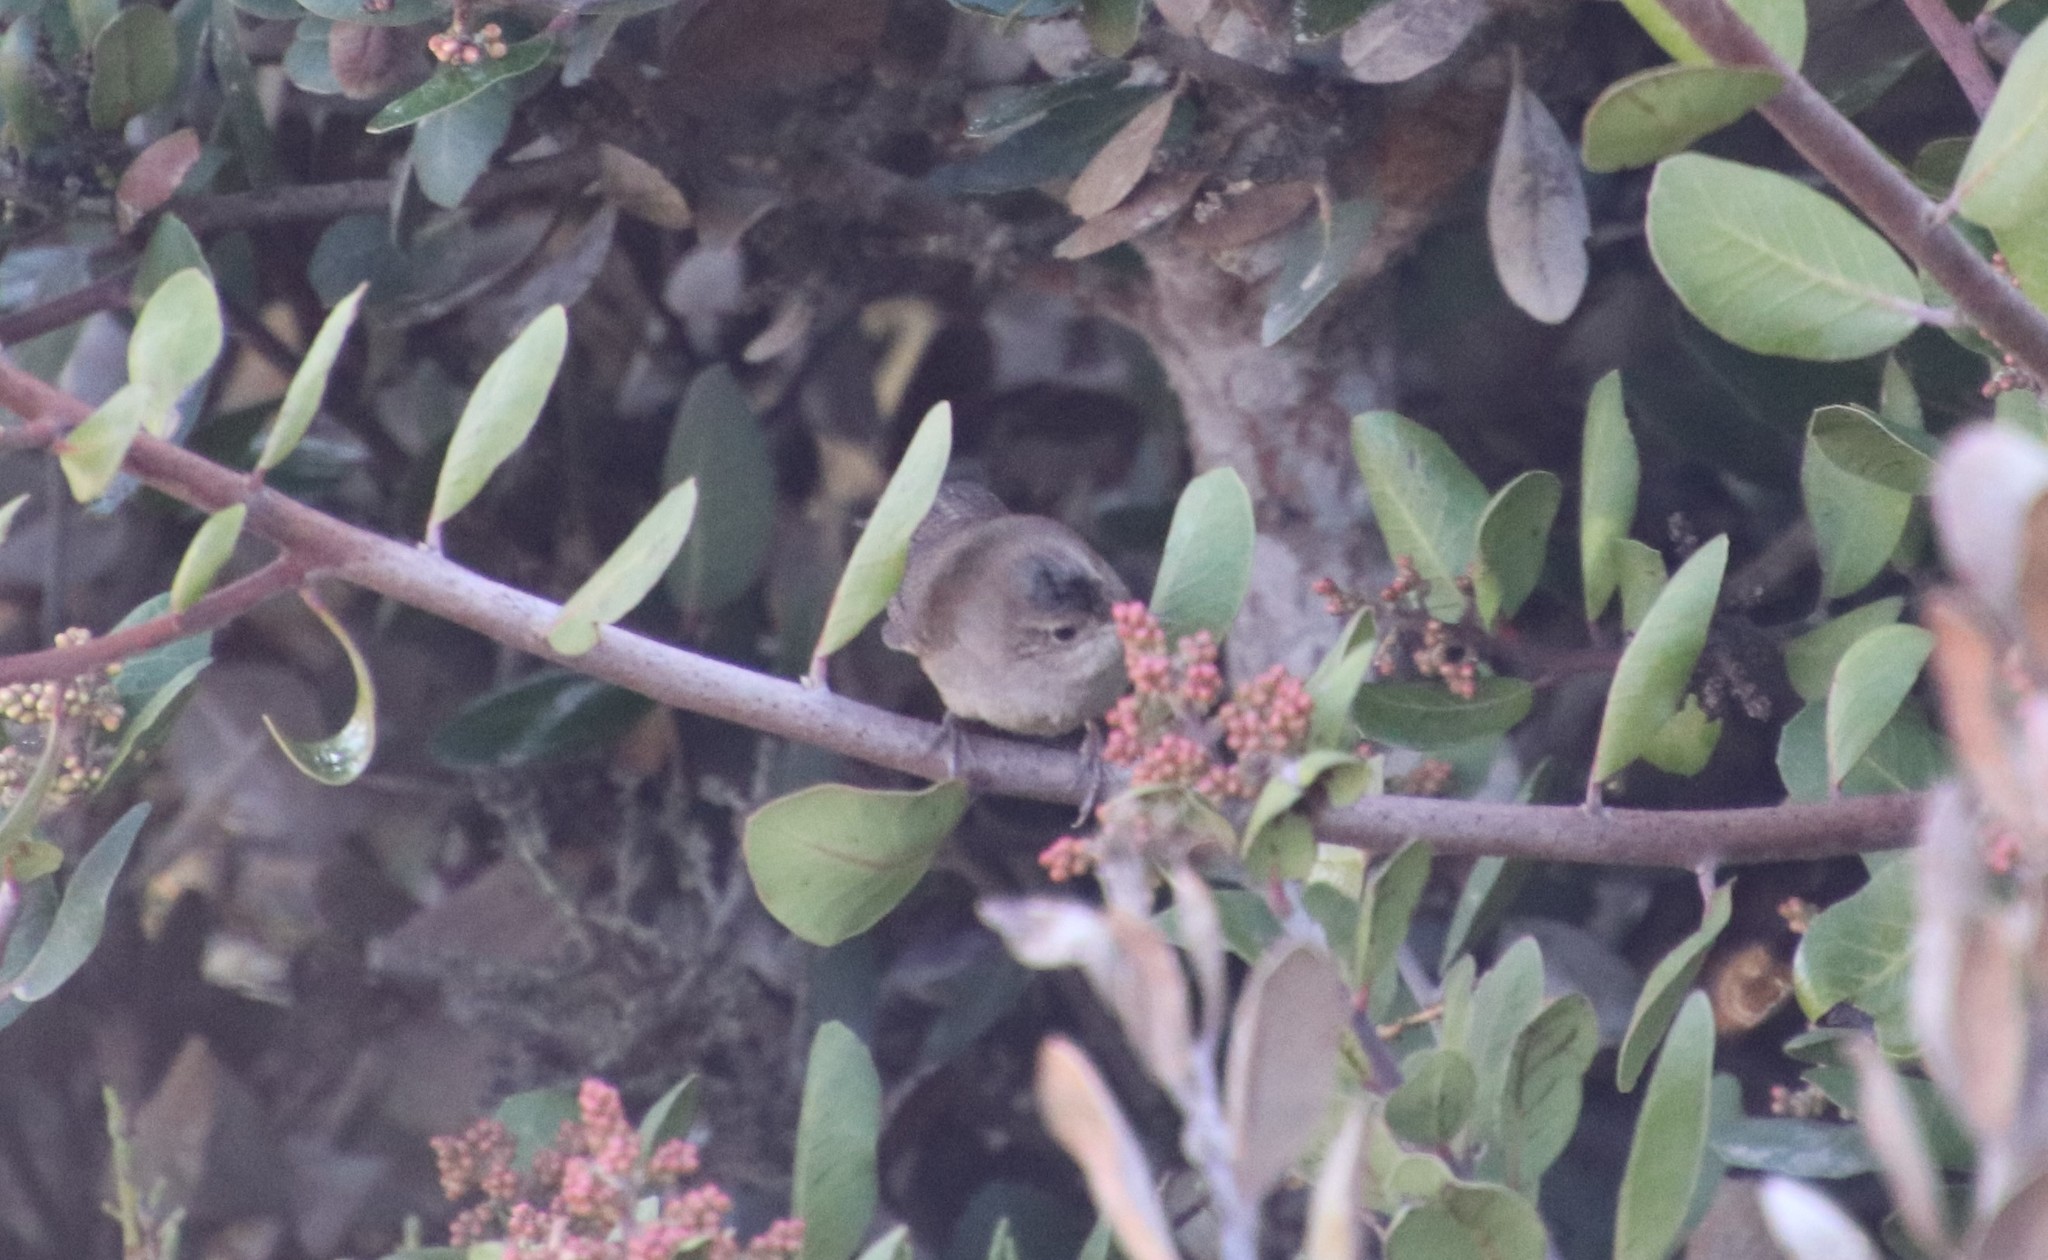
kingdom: Animalia
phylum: Chordata
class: Aves
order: Passeriformes
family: Troglodytidae
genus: Troglodytes
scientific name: Troglodytes aedon
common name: House wren
